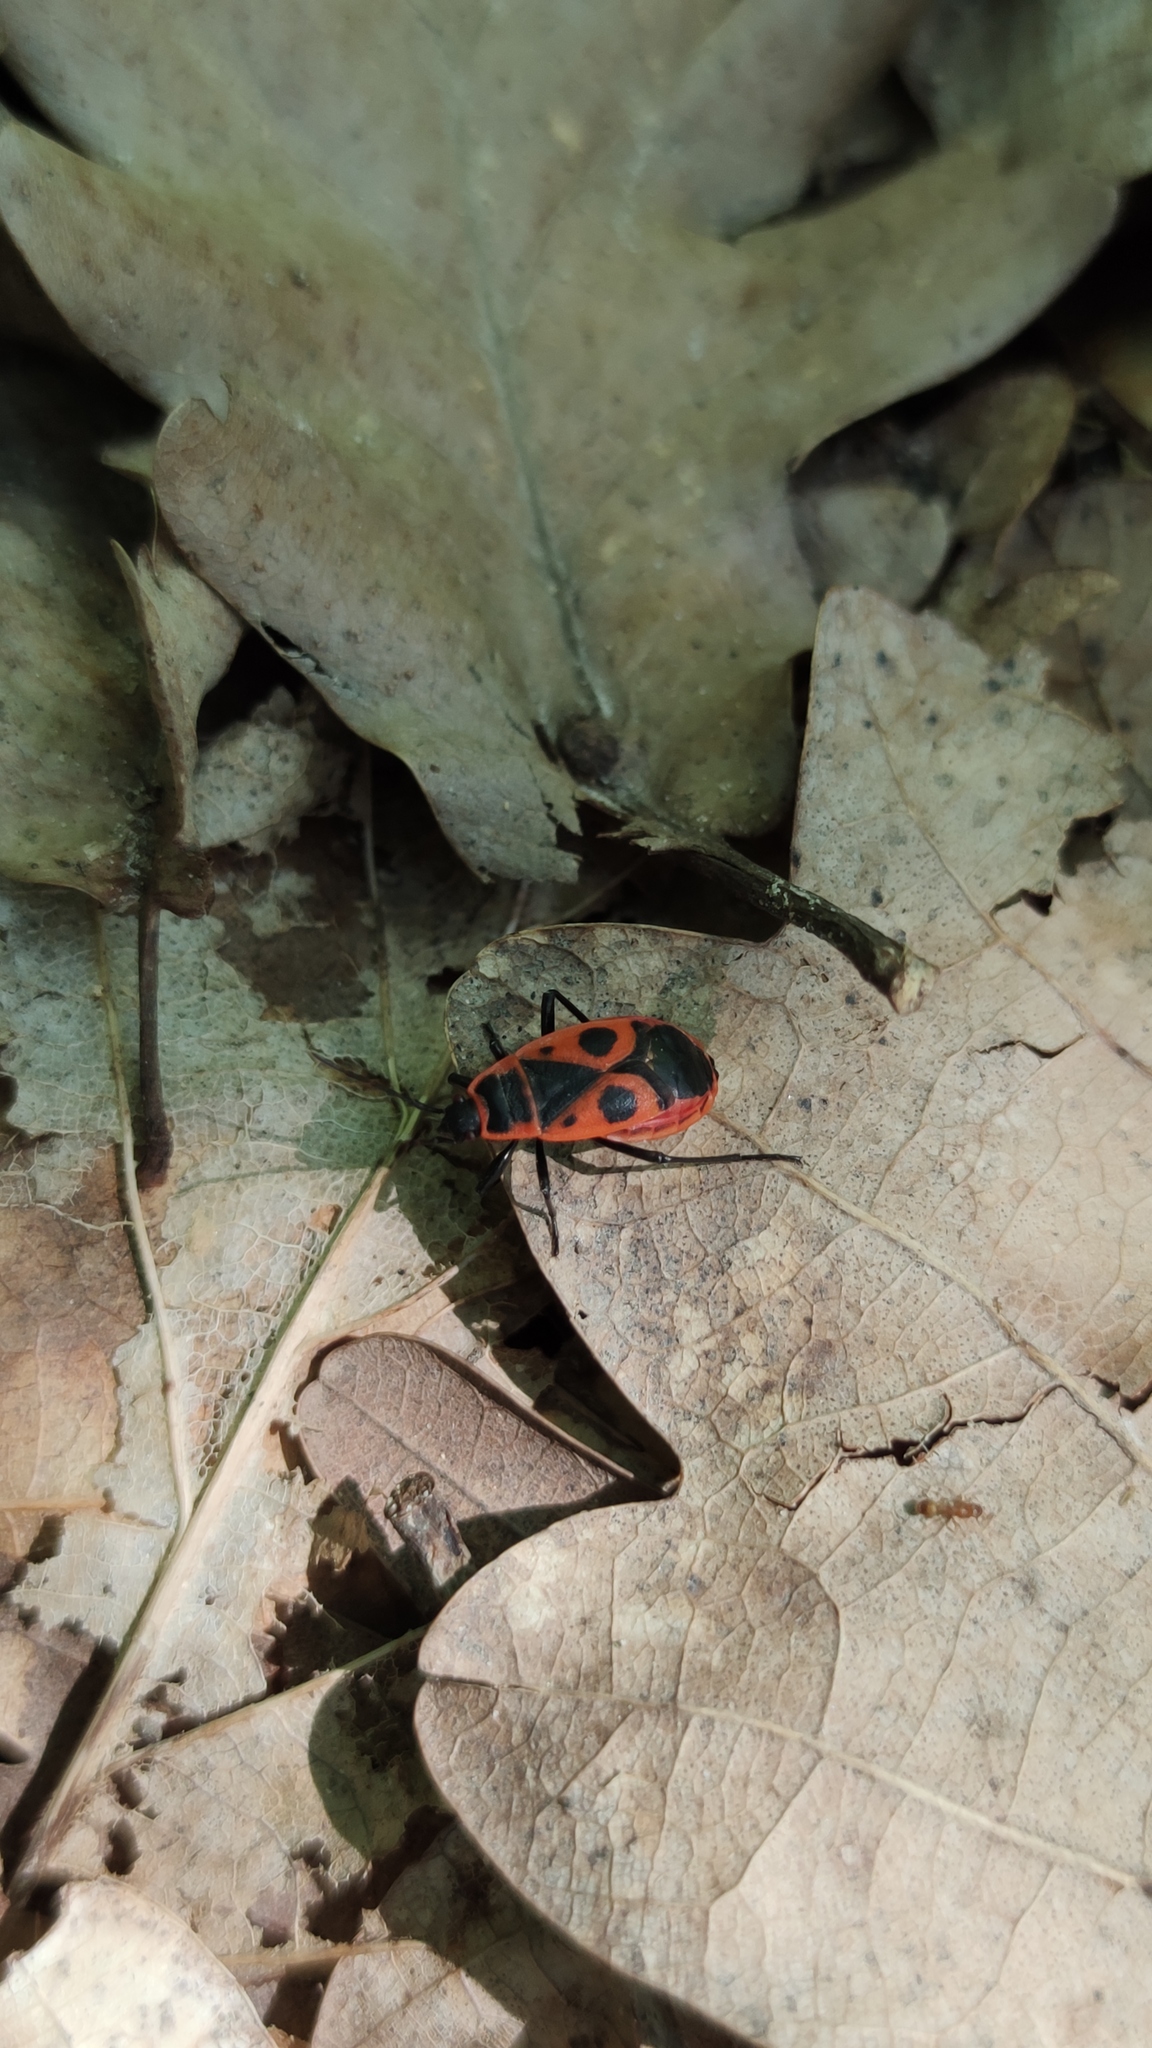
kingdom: Animalia
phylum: Arthropoda
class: Insecta
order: Hemiptera
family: Pyrrhocoridae
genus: Pyrrhocoris
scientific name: Pyrrhocoris apterus
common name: Firebug
